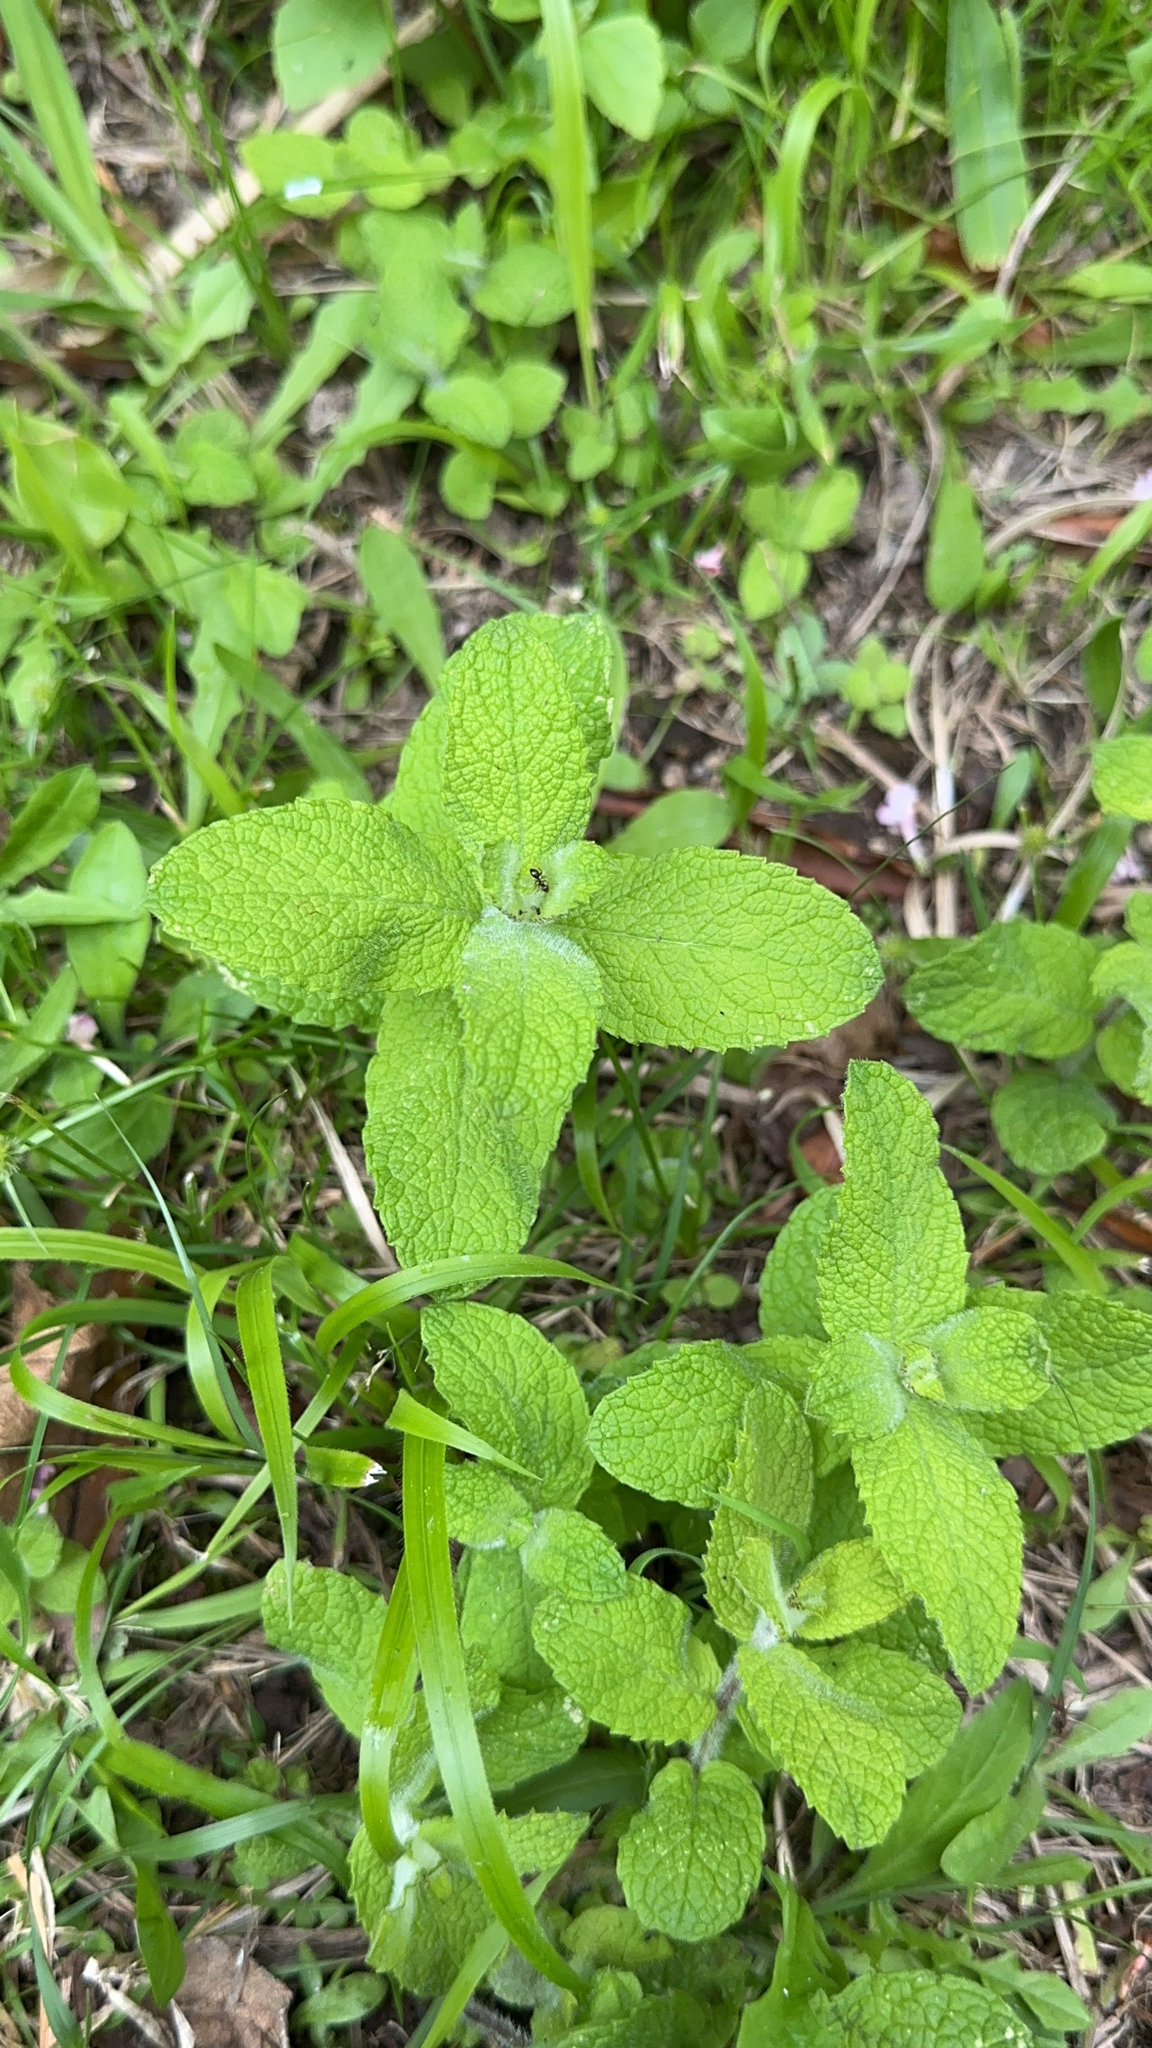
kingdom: Plantae
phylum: Tracheophyta
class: Magnoliopsida
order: Lamiales
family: Lamiaceae
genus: Mentha
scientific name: Mentha suaveolens
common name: Apple mint
